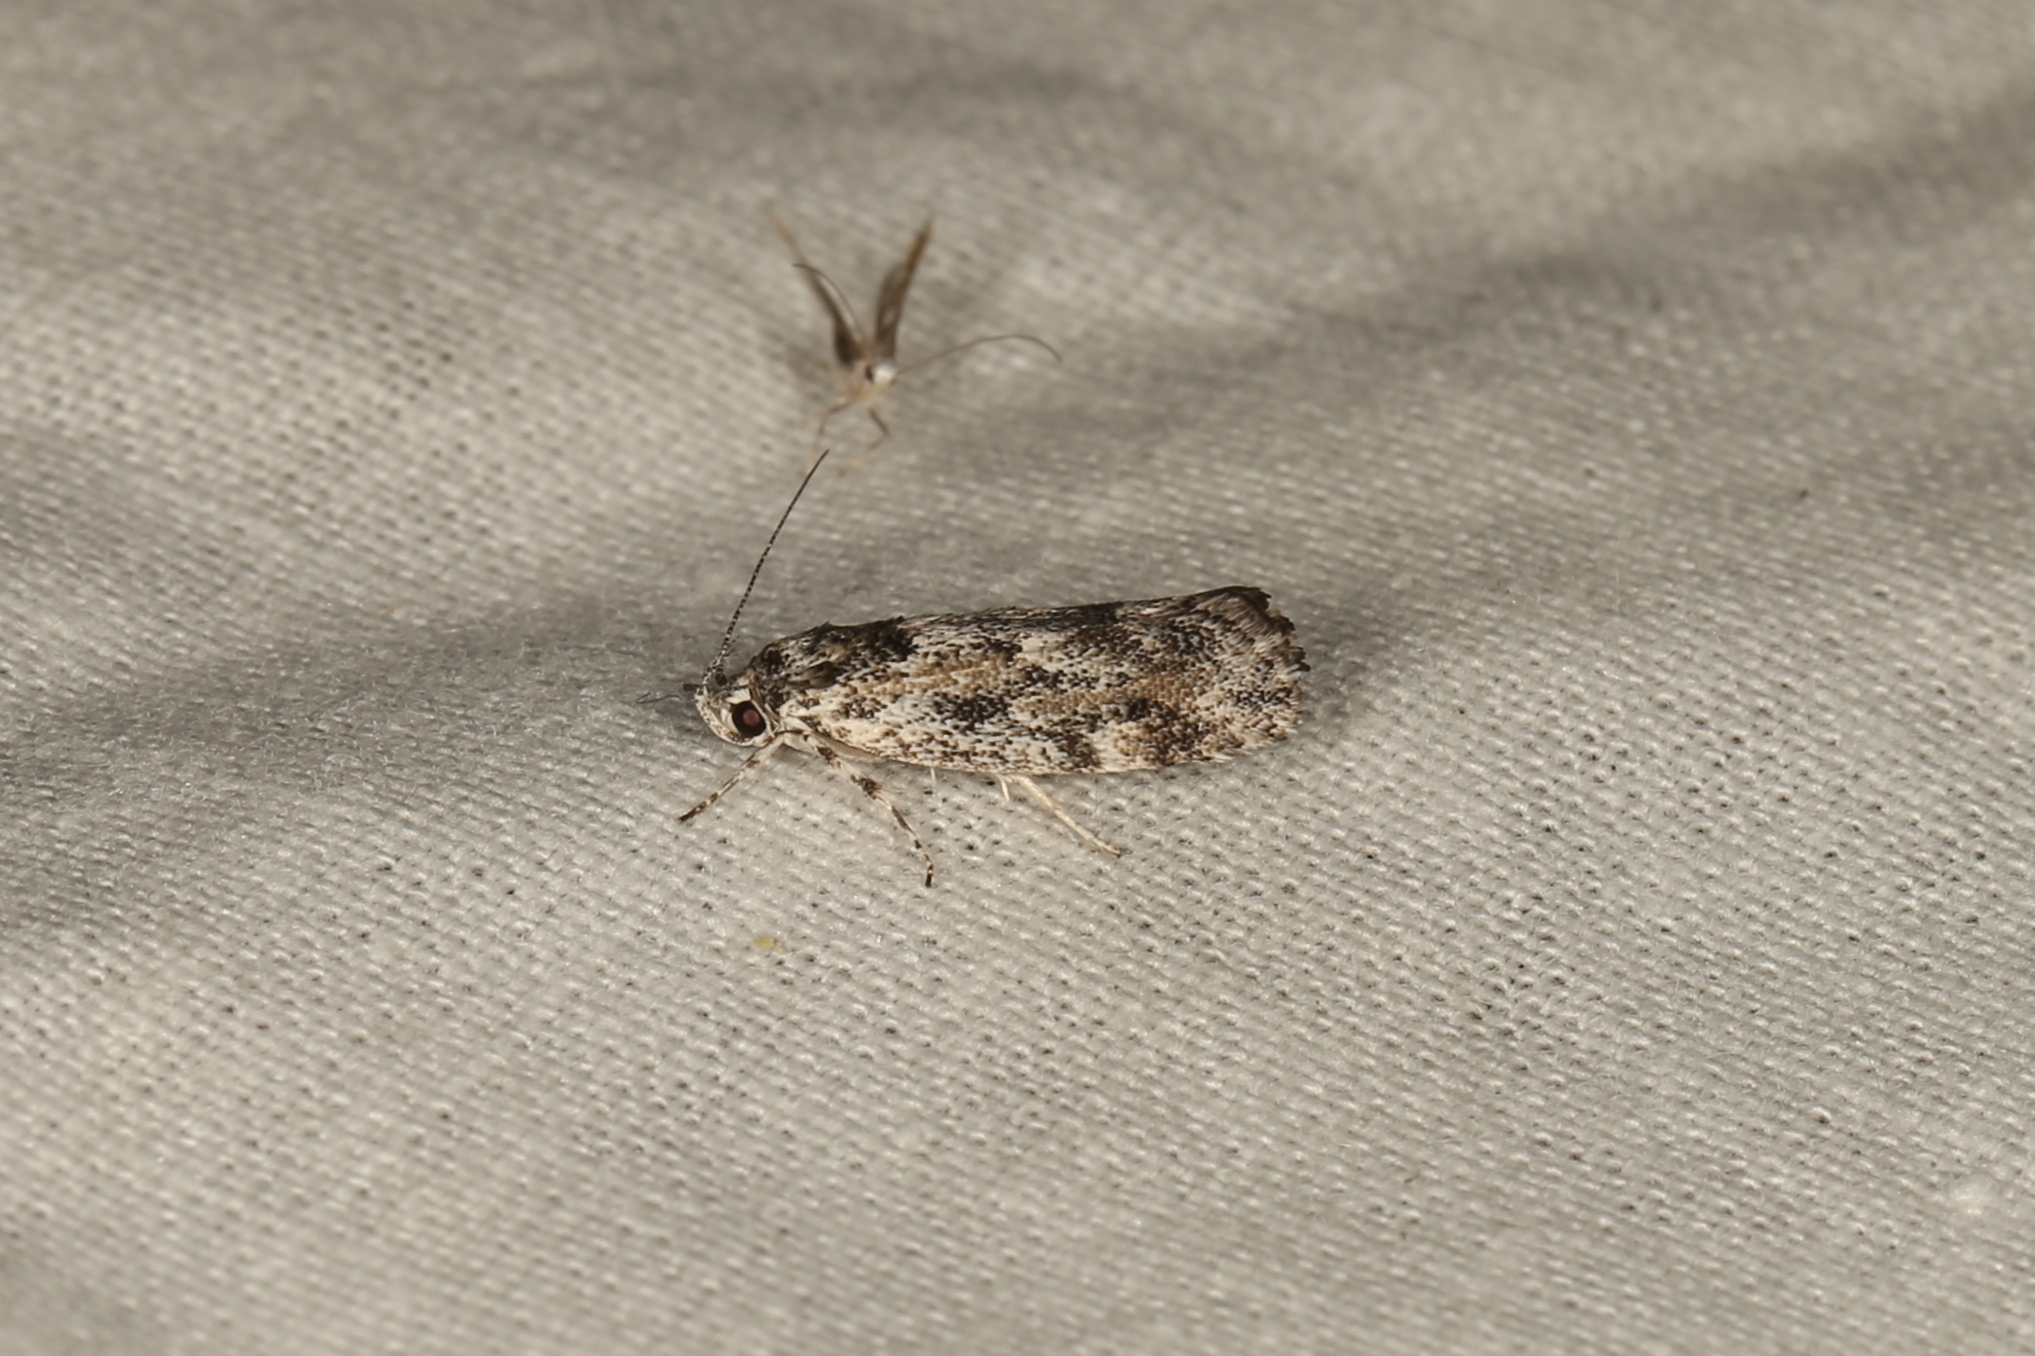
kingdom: Animalia
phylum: Arthropoda
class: Insecta
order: Lepidoptera
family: Xyloryctidae
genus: Lichenaula
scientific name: Lichenaula appropinquans
